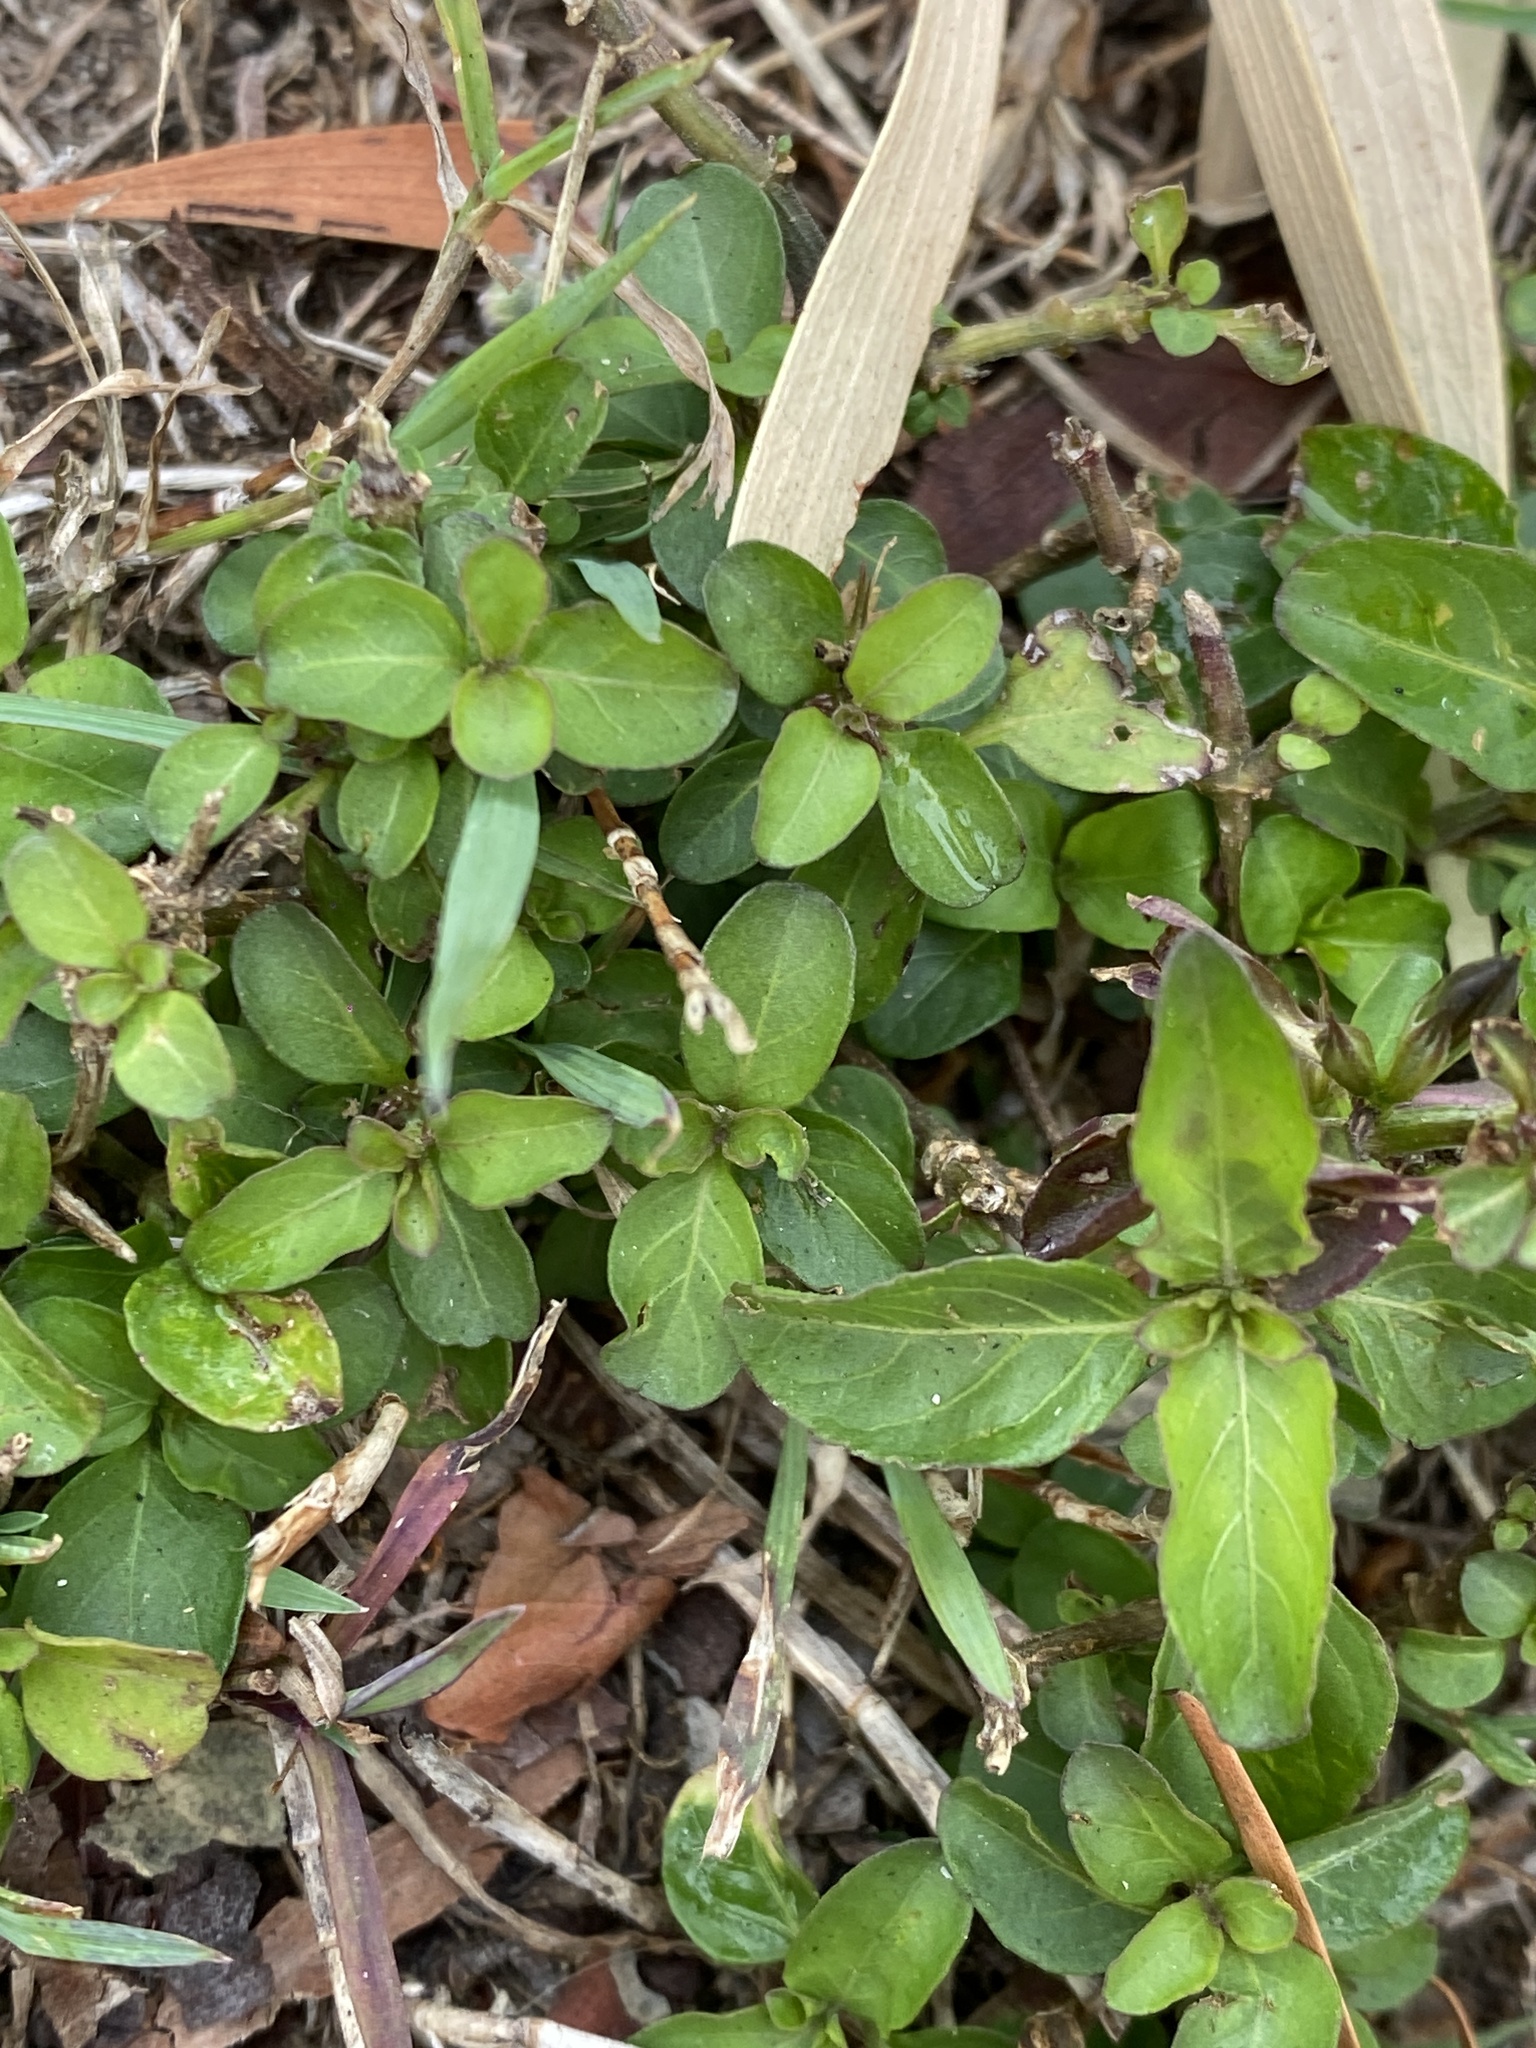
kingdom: Plantae
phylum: Tracheophyta
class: Magnoliopsida
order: Lamiales
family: Acanthaceae
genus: Hygrophila
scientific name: Hygrophila erecta
